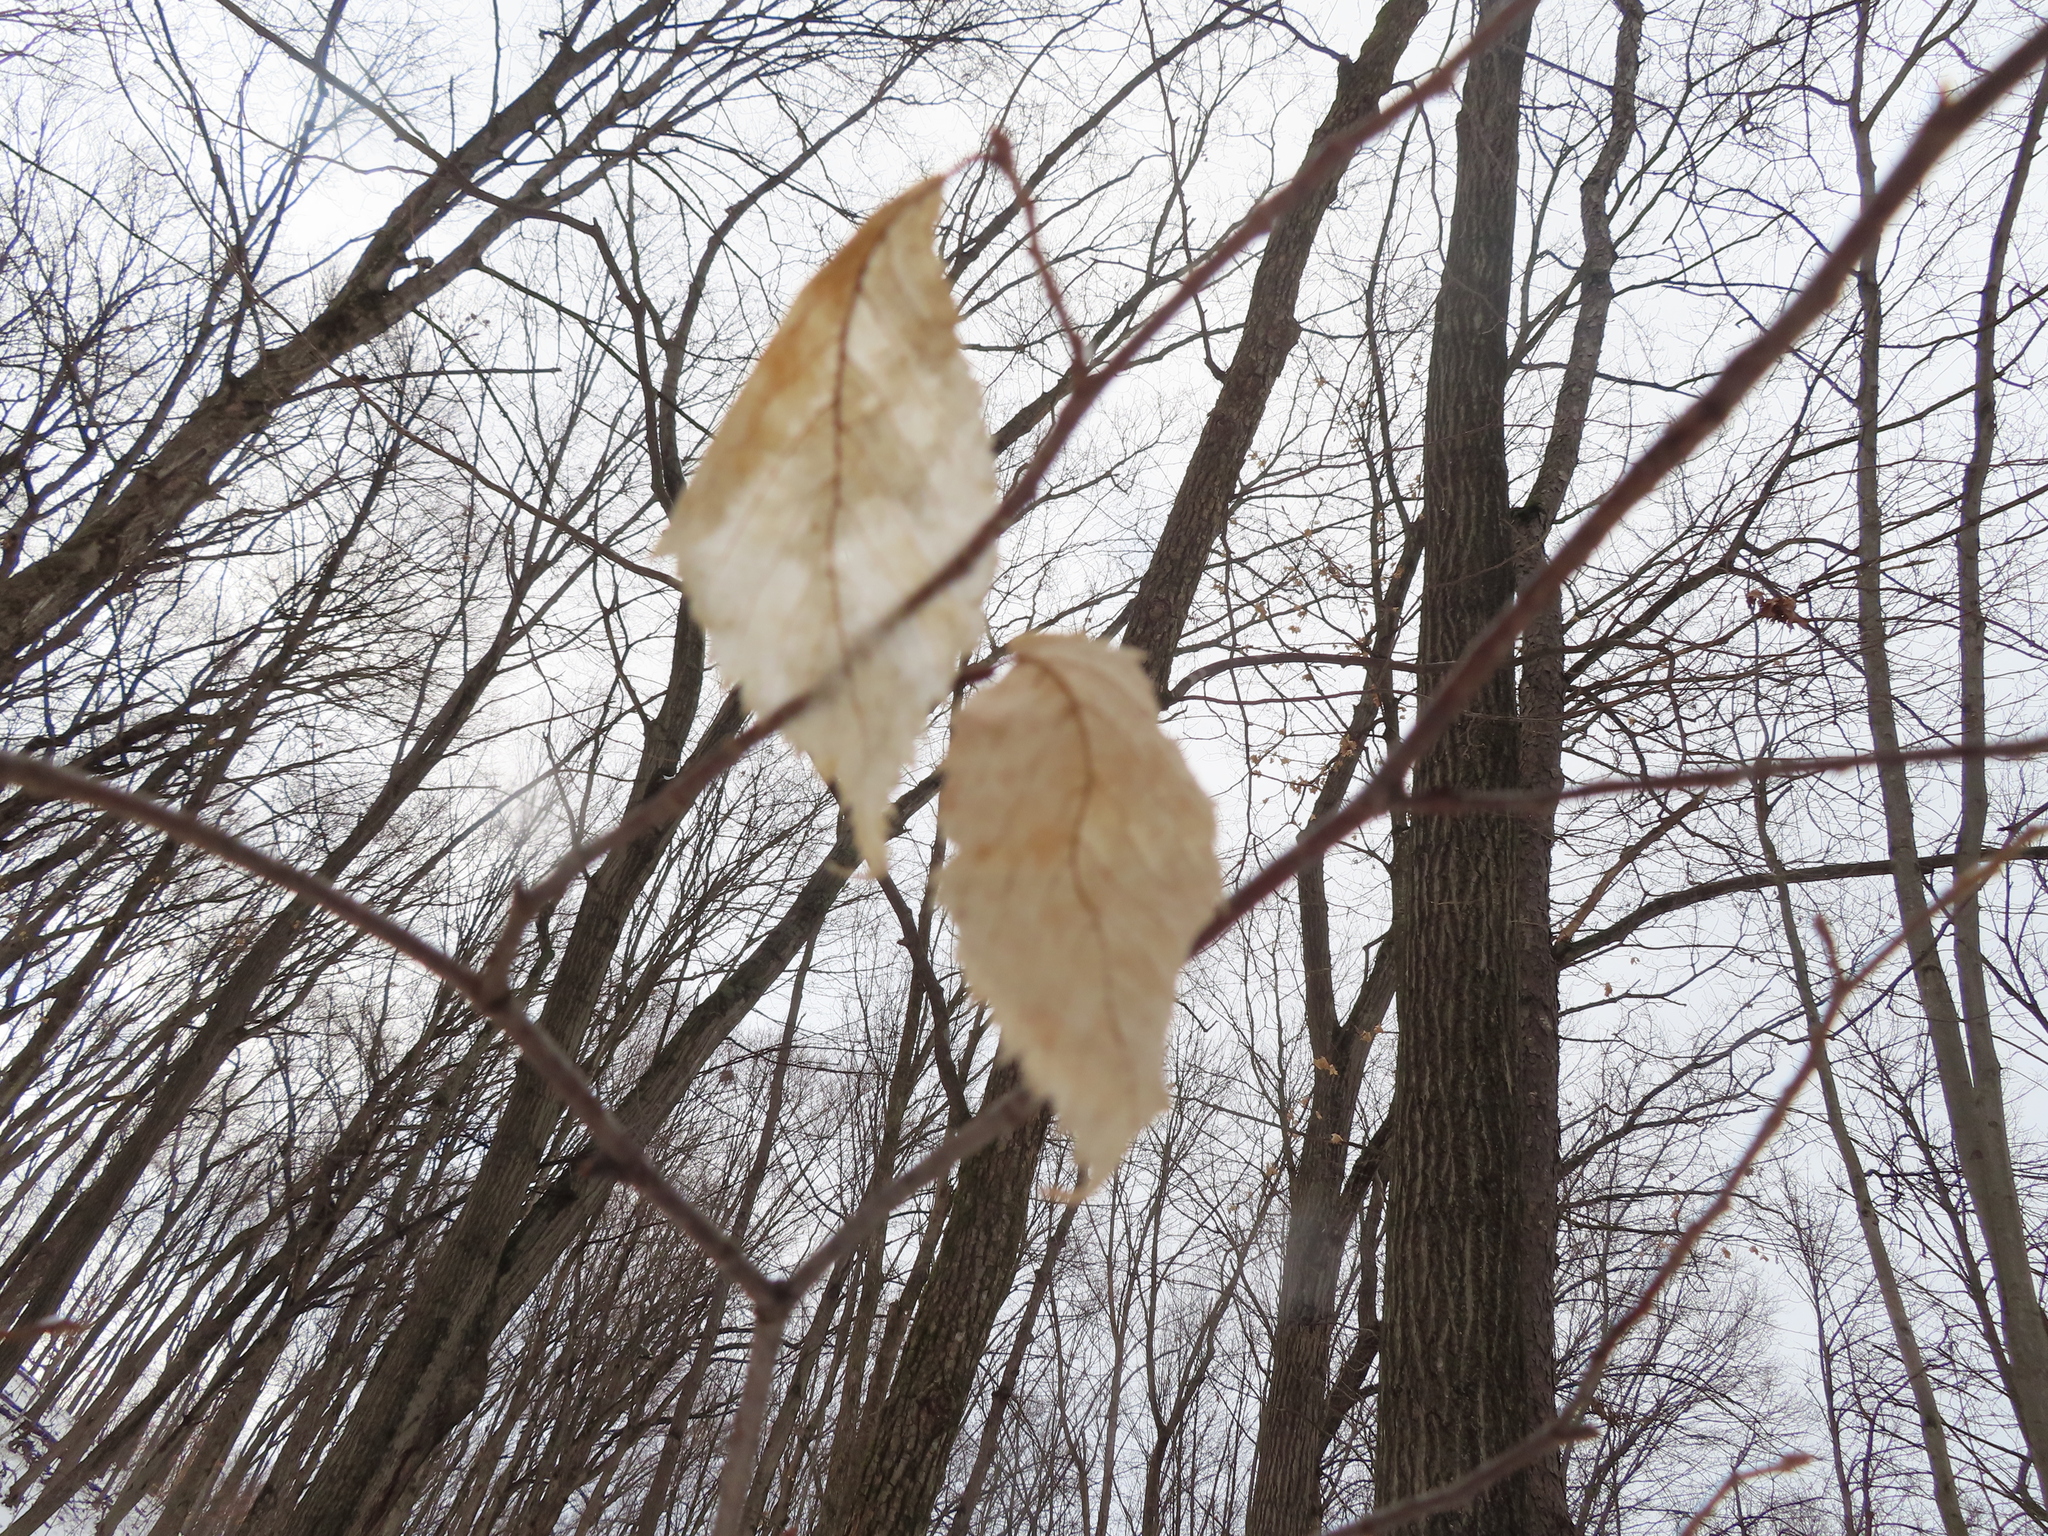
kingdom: Plantae
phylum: Tracheophyta
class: Magnoliopsida
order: Rosales
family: Ulmaceae
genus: Ulmus
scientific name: Ulmus americana
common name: American elm
